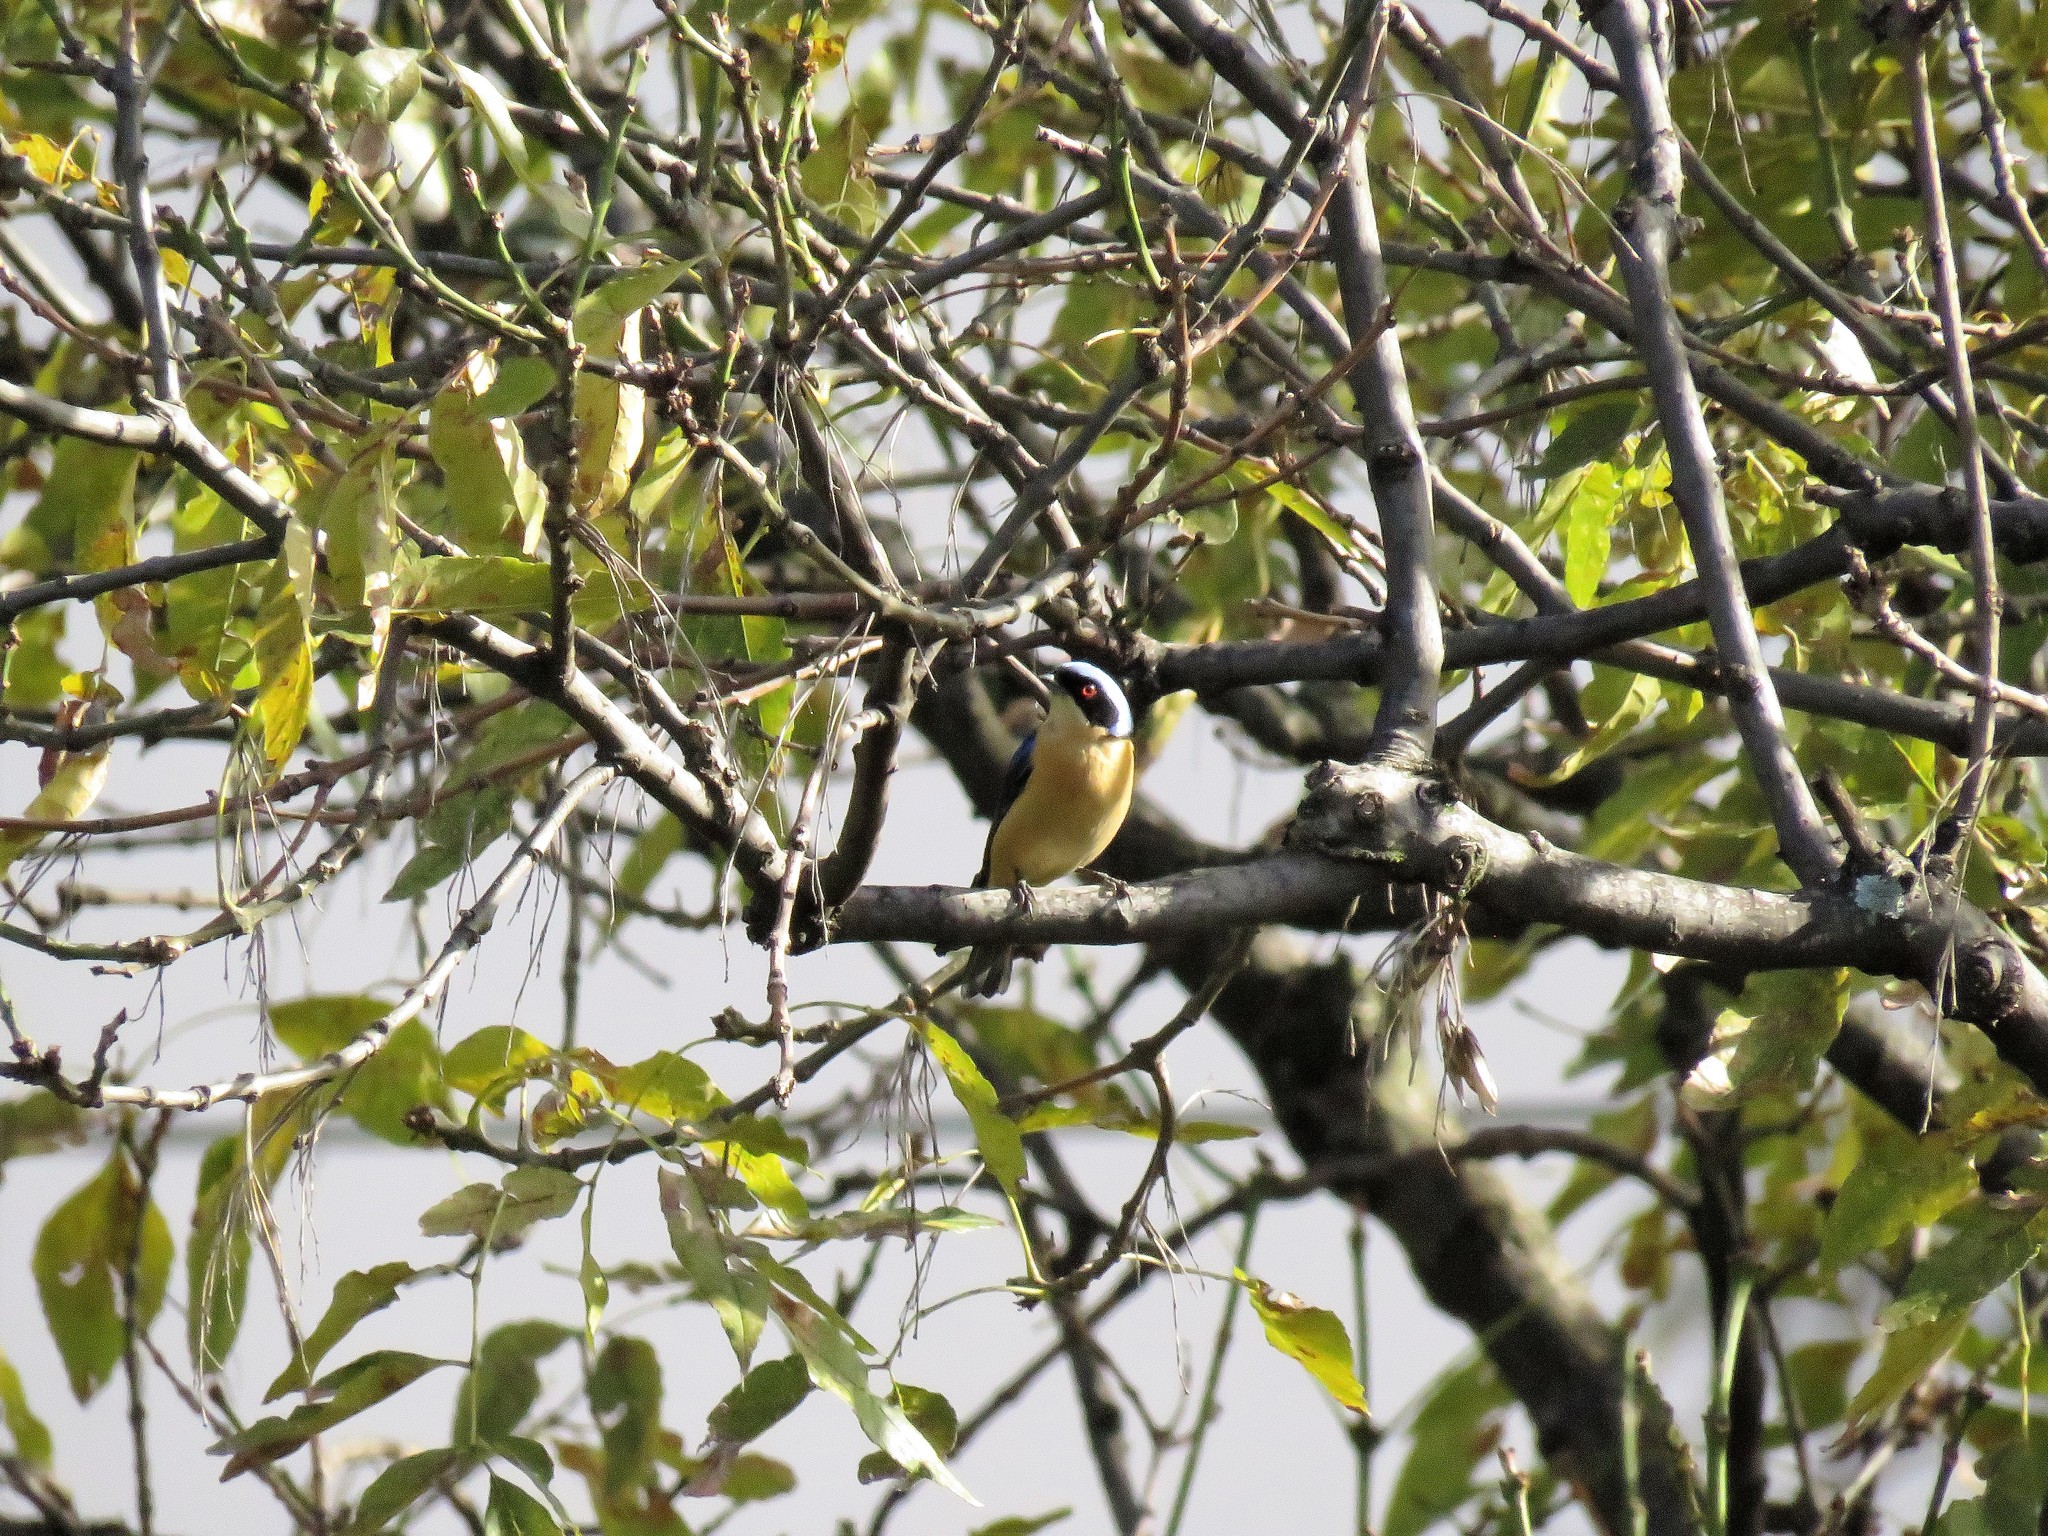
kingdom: Animalia
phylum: Chordata
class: Aves
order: Passeriformes
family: Thraupidae
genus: Pipraeidea
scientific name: Pipraeidea melanonota
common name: Fawn-breasted tanager
